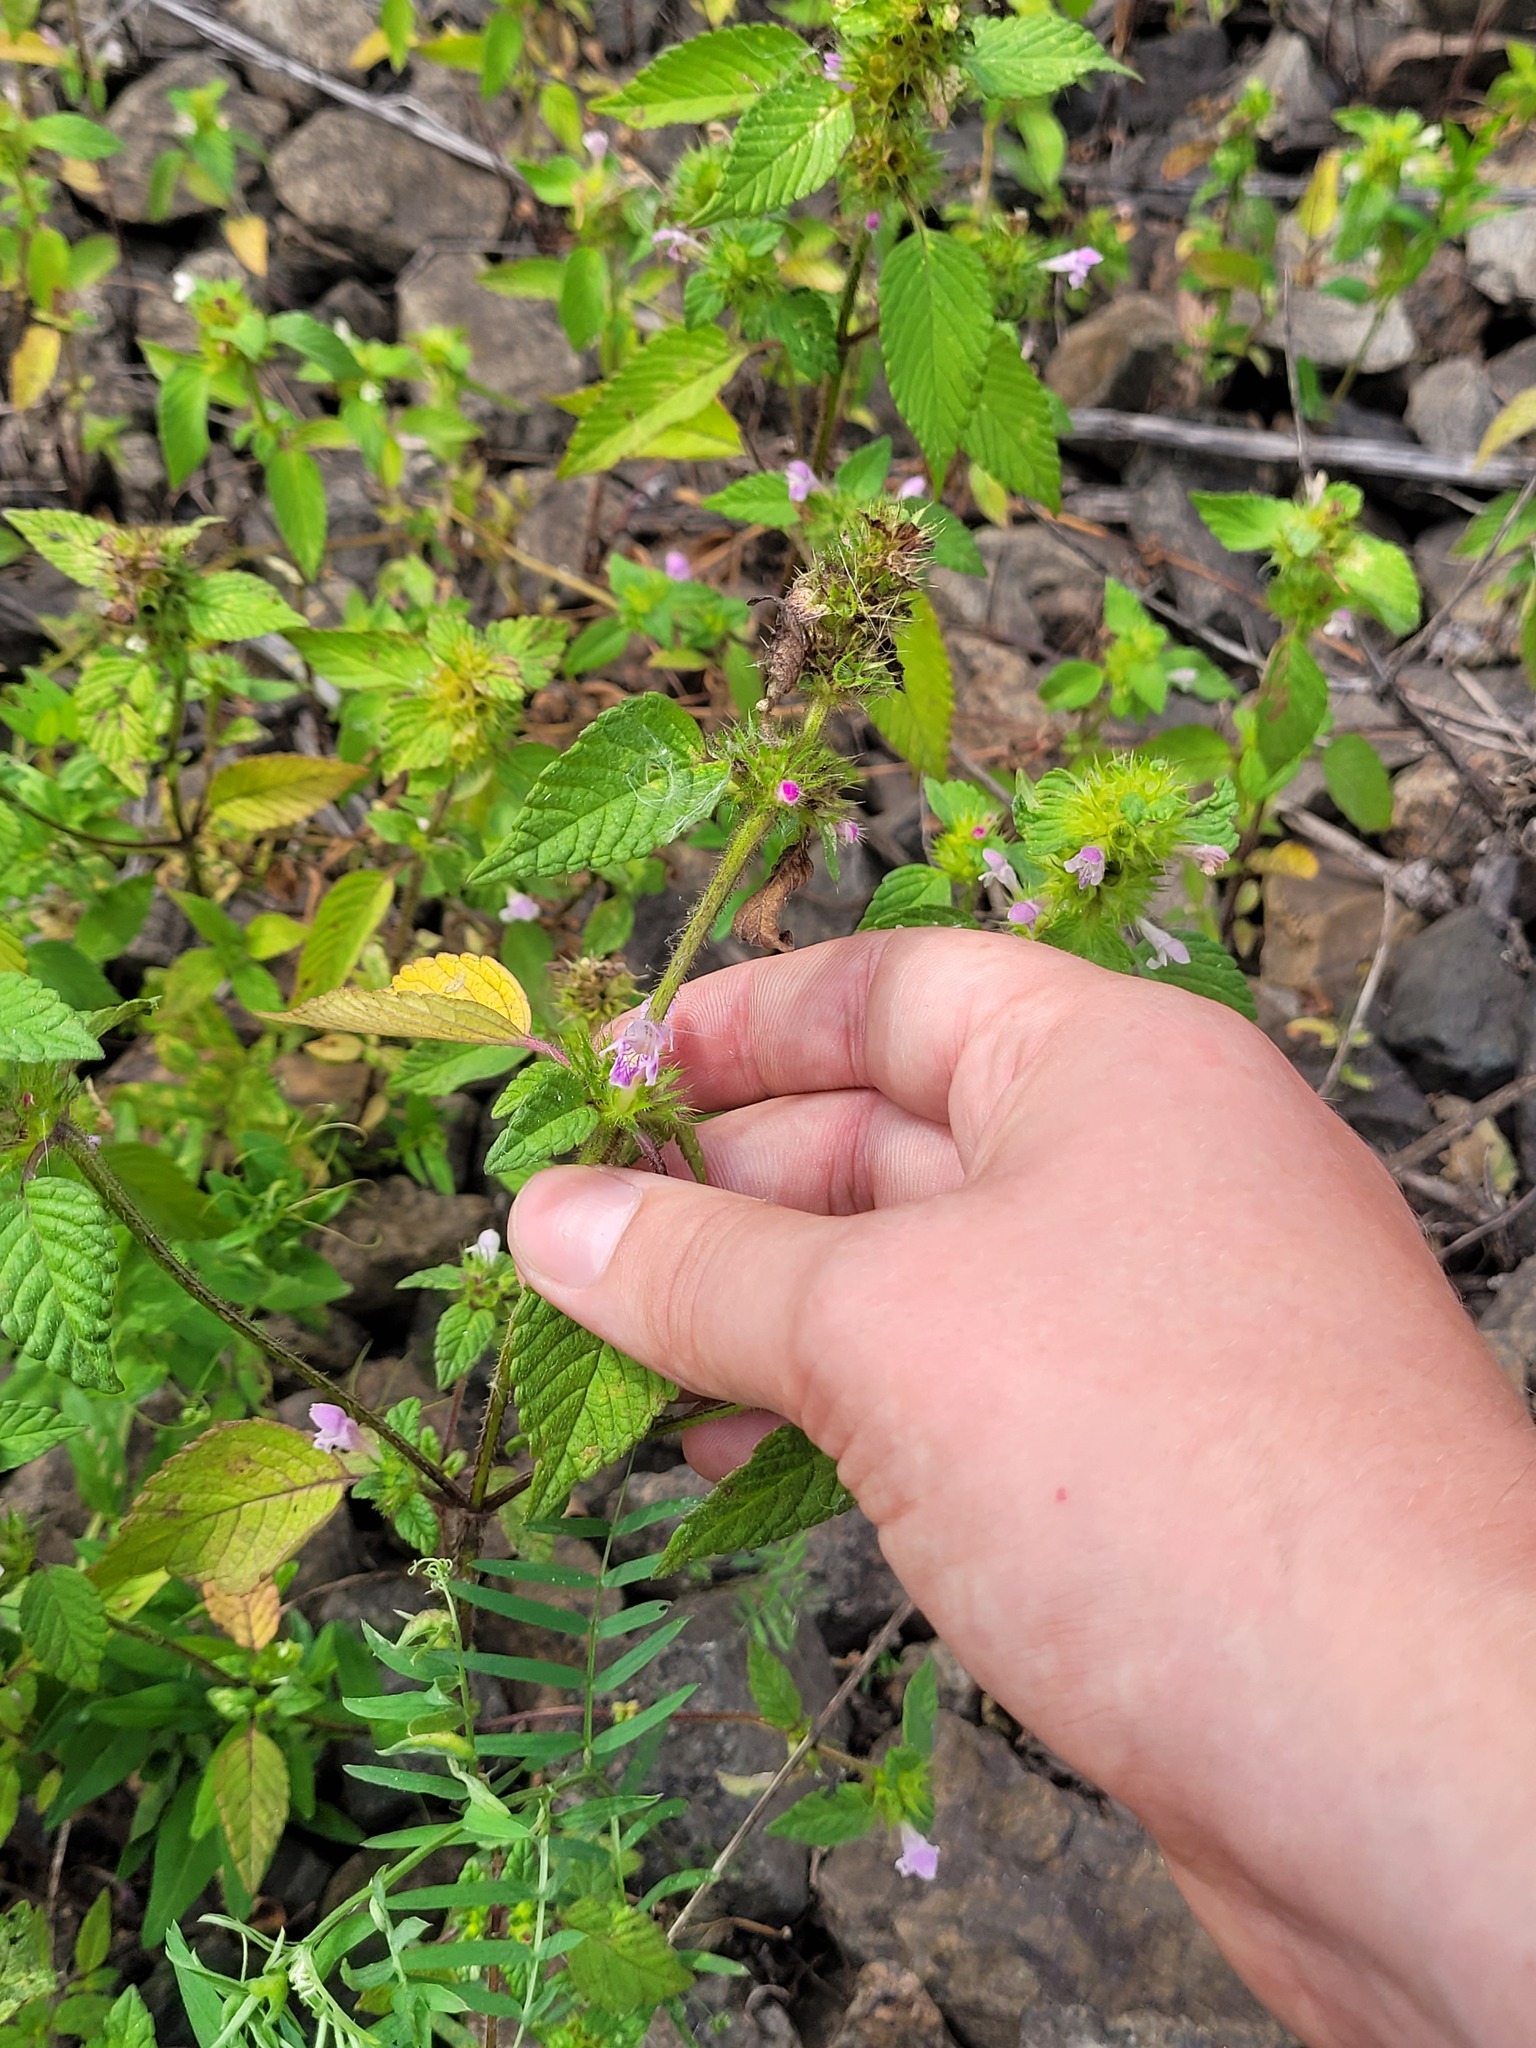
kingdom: Plantae
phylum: Tracheophyta
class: Magnoliopsida
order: Lamiales
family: Lamiaceae
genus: Galeopsis
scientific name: Galeopsis bifida
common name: Bifid hemp-nettle
